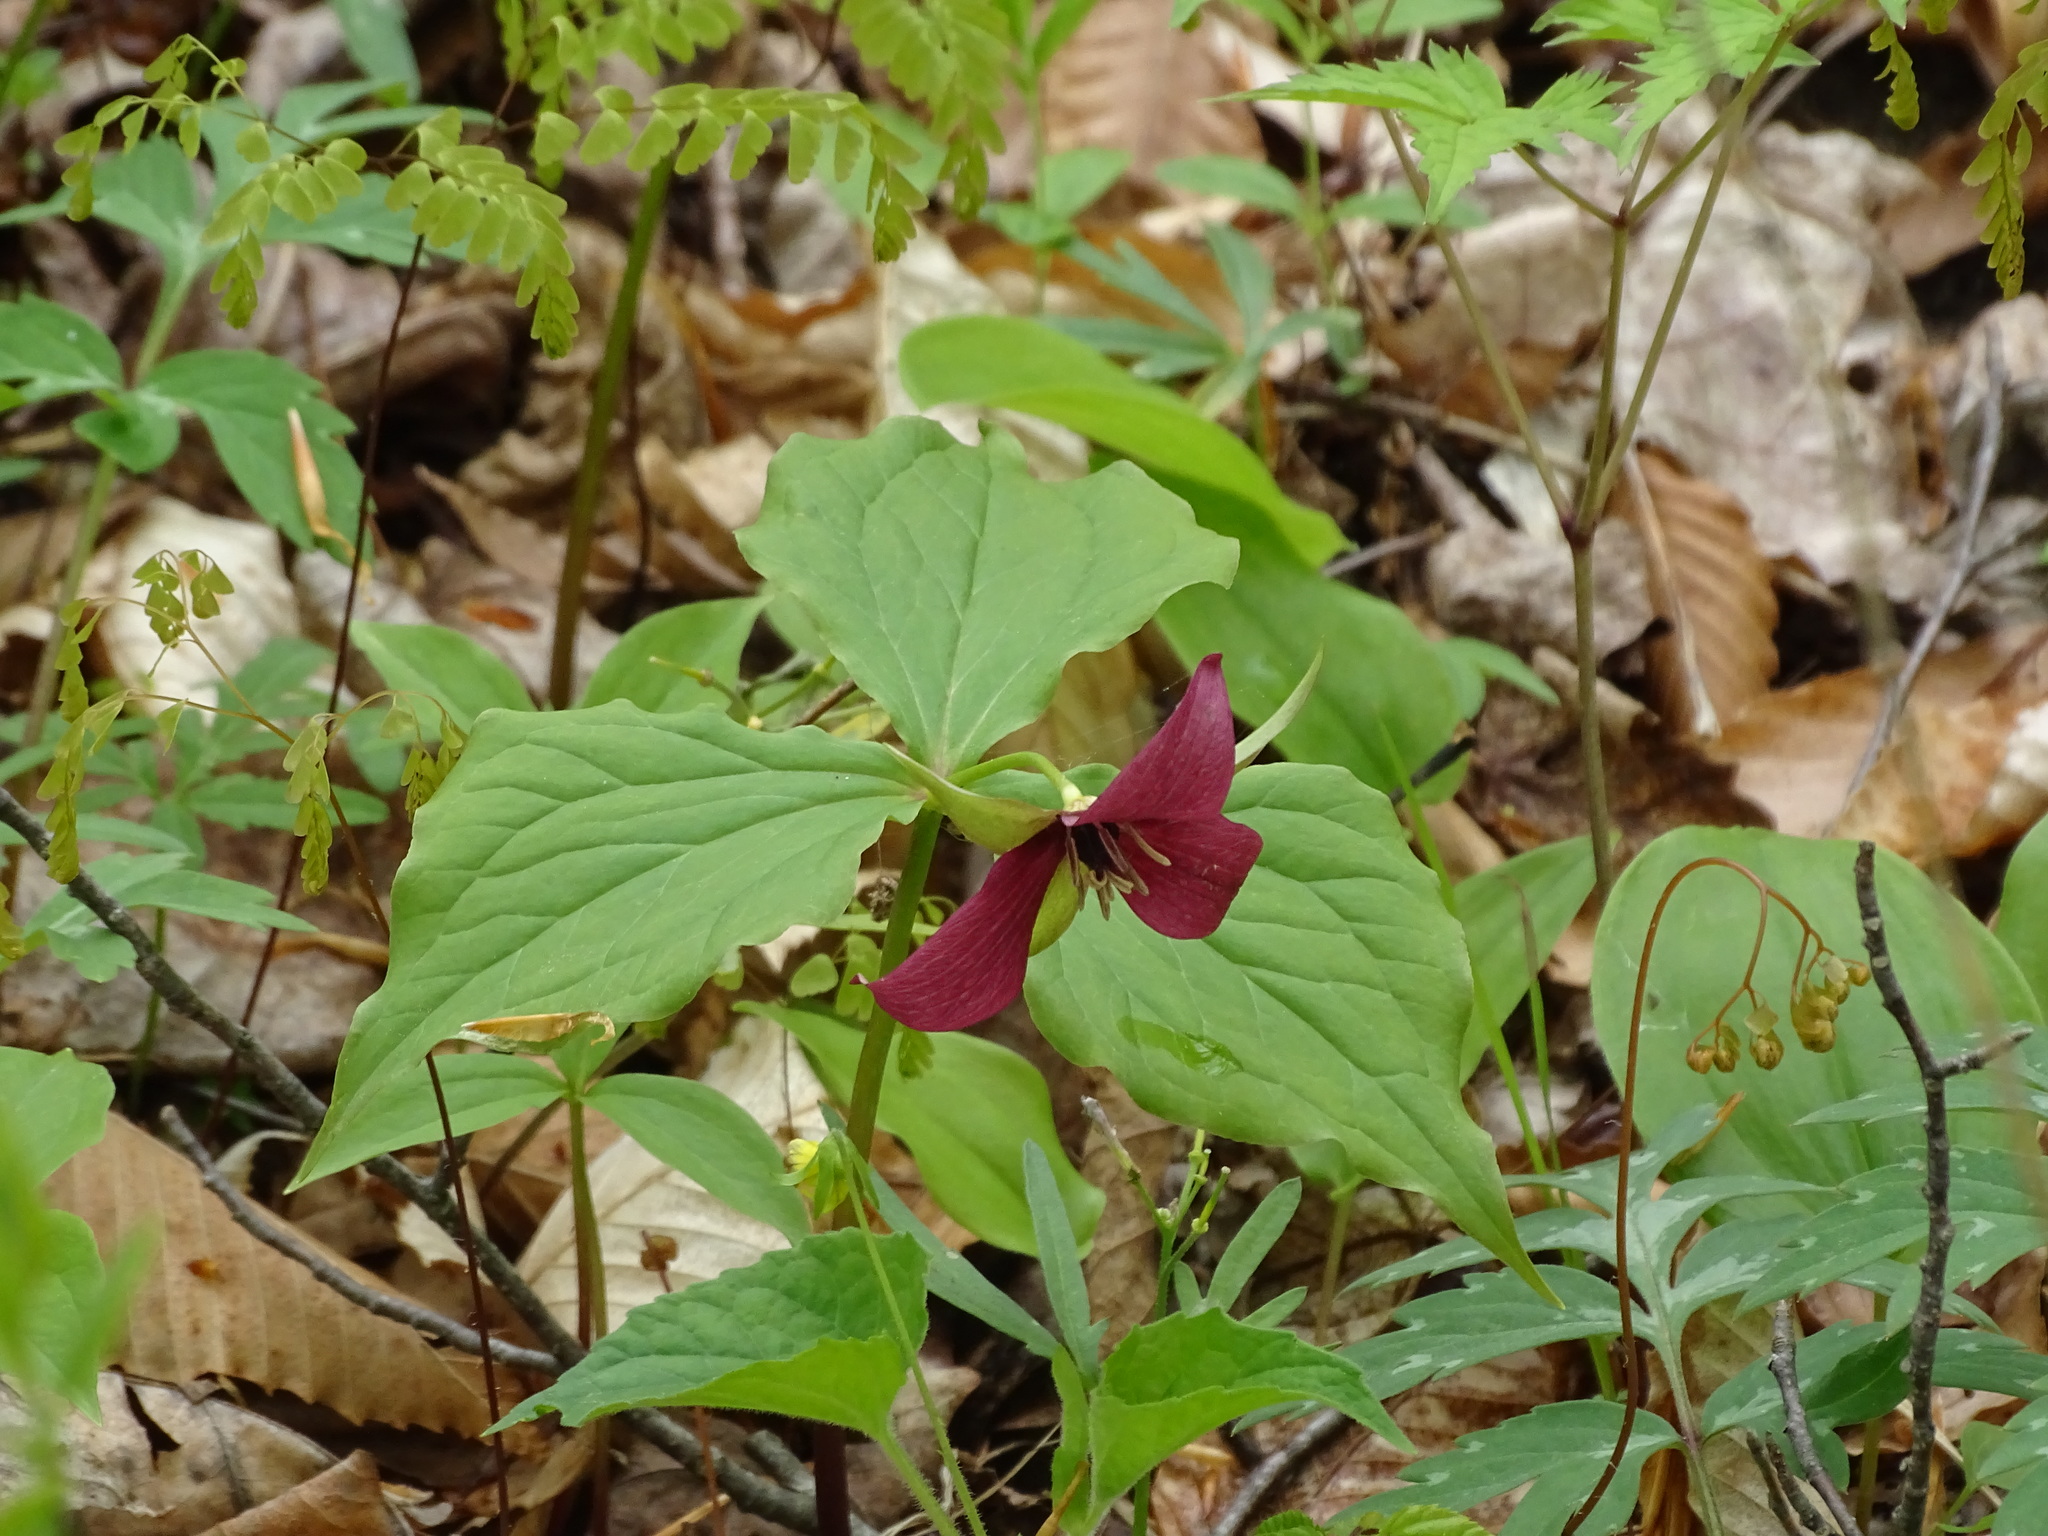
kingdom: Plantae
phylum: Tracheophyta
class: Liliopsida
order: Liliales
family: Melanthiaceae
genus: Trillium
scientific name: Trillium erectum
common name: Purple trillium
